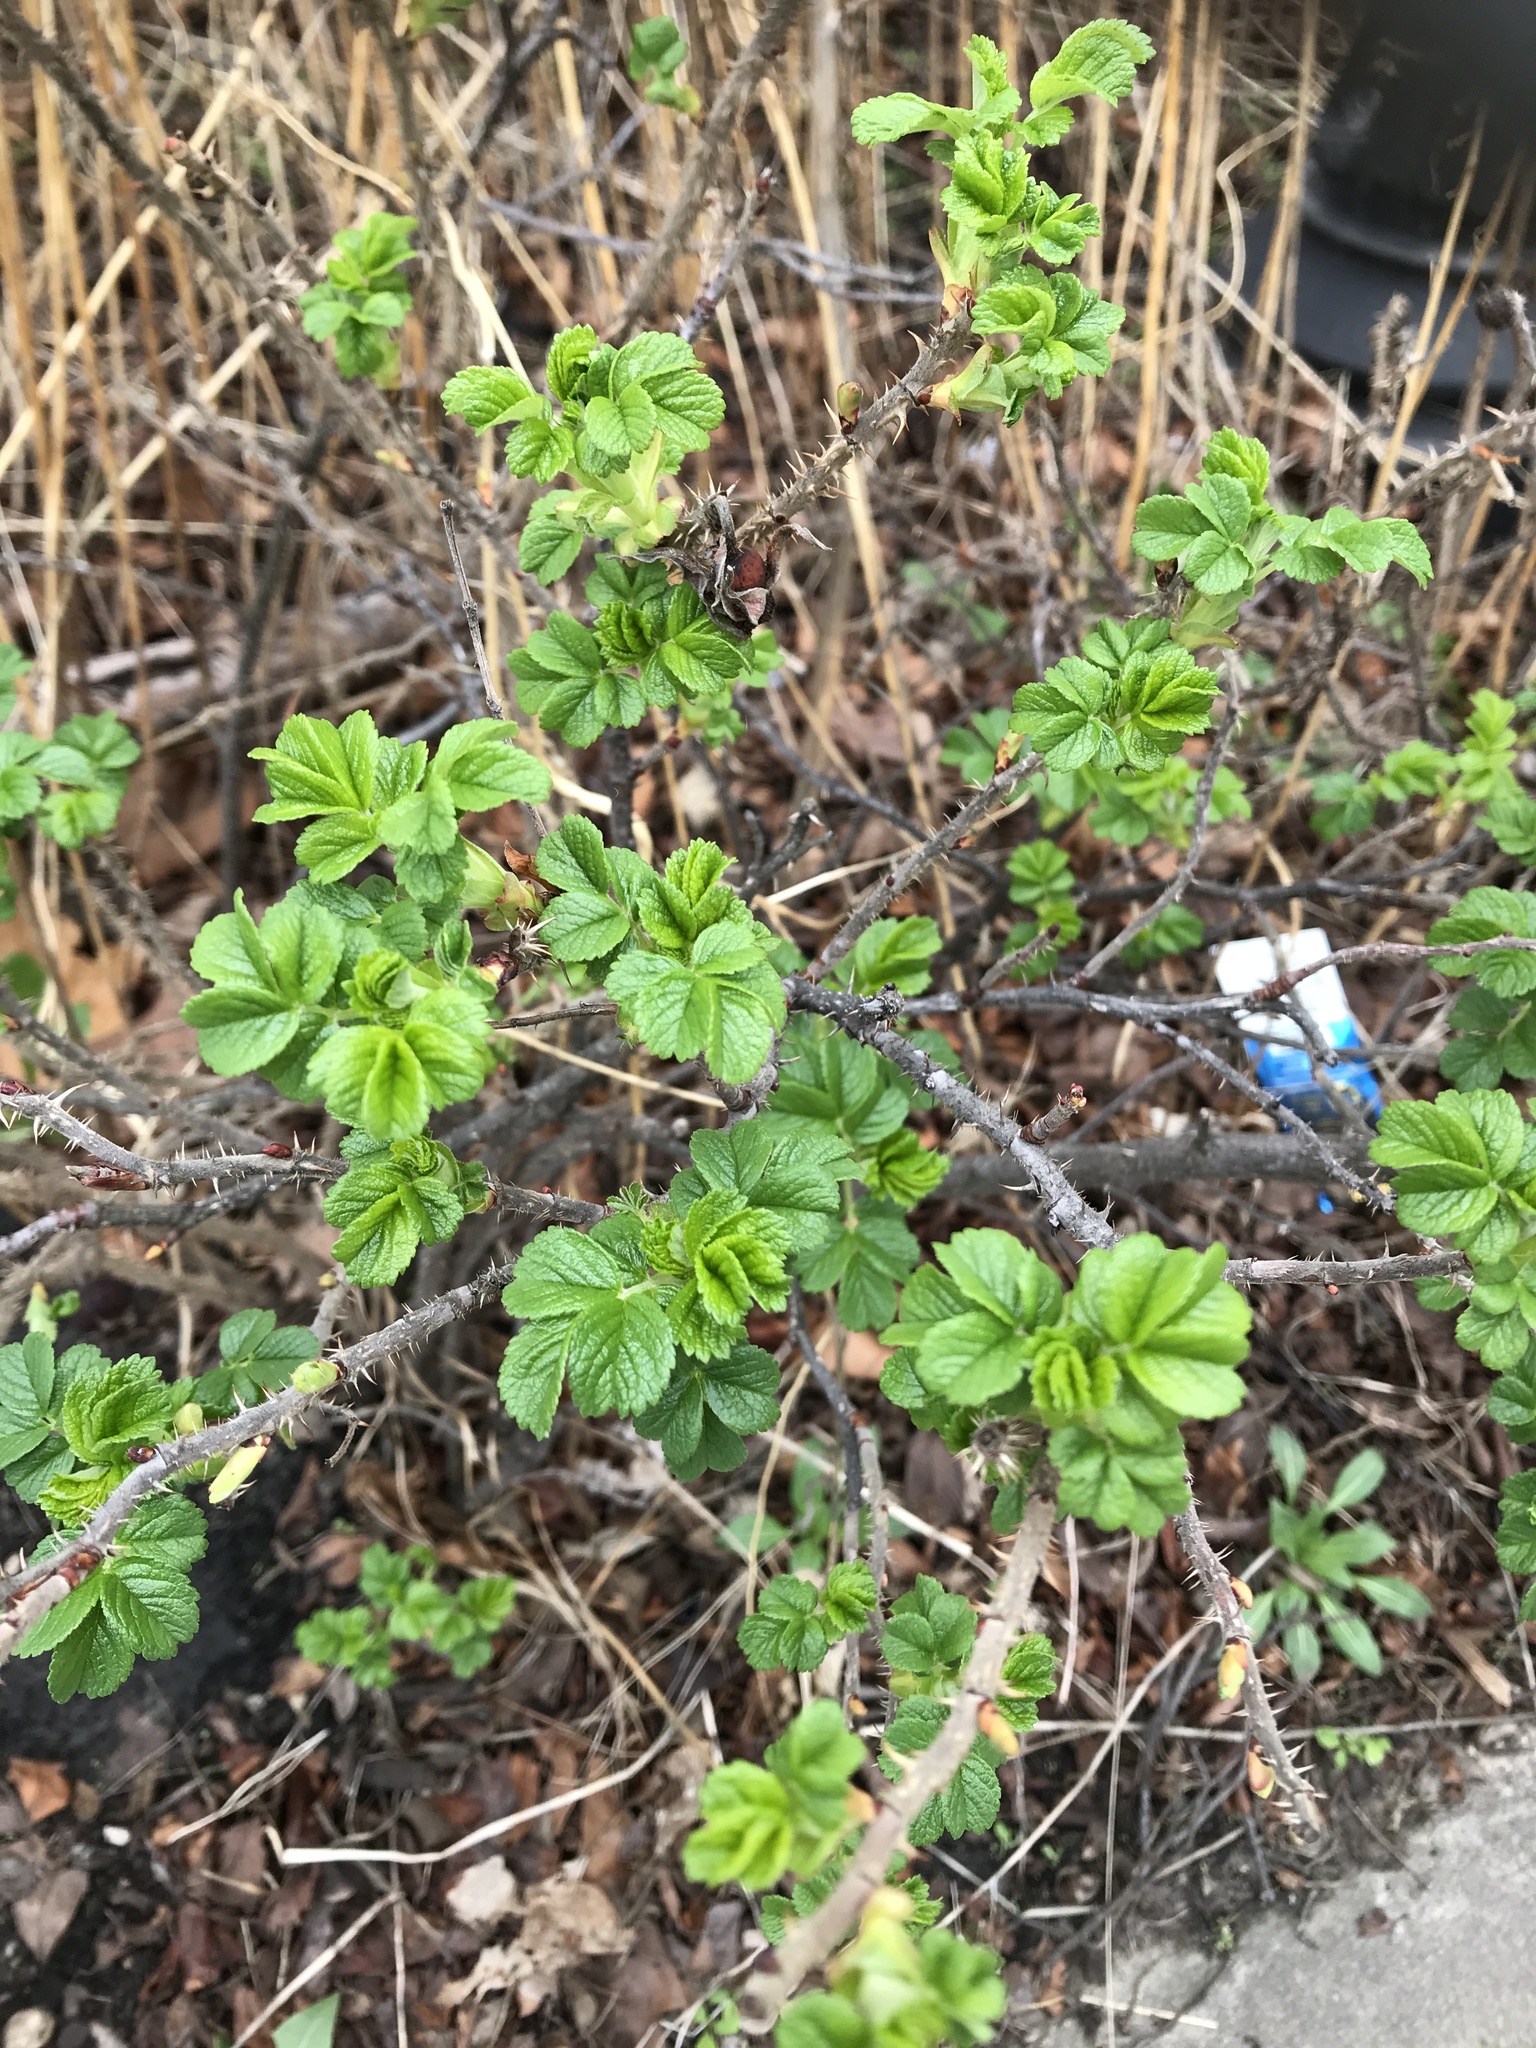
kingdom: Plantae
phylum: Tracheophyta
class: Magnoliopsida
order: Rosales
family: Rosaceae
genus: Rosa
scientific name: Rosa rugosa
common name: Japanese rose
